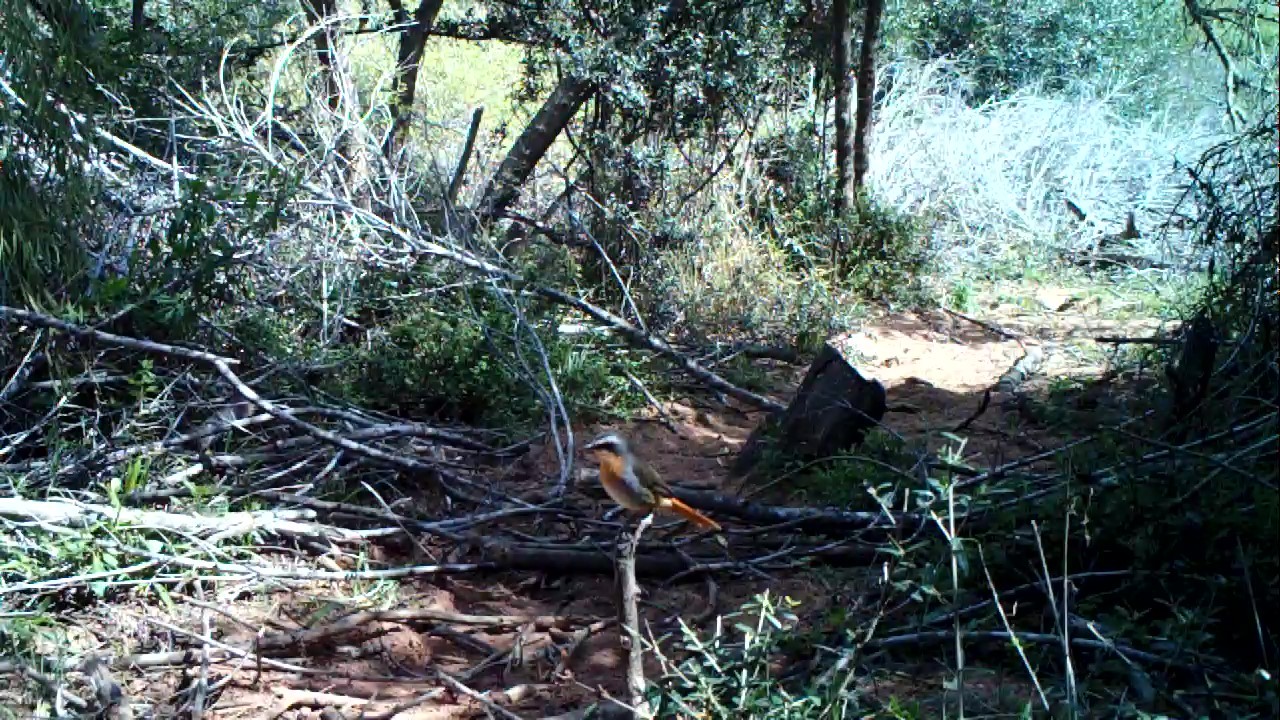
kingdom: Animalia
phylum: Chordata
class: Aves
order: Passeriformes
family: Muscicapidae
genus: Cossypha
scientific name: Cossypha caffra
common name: Cape robin-chat
